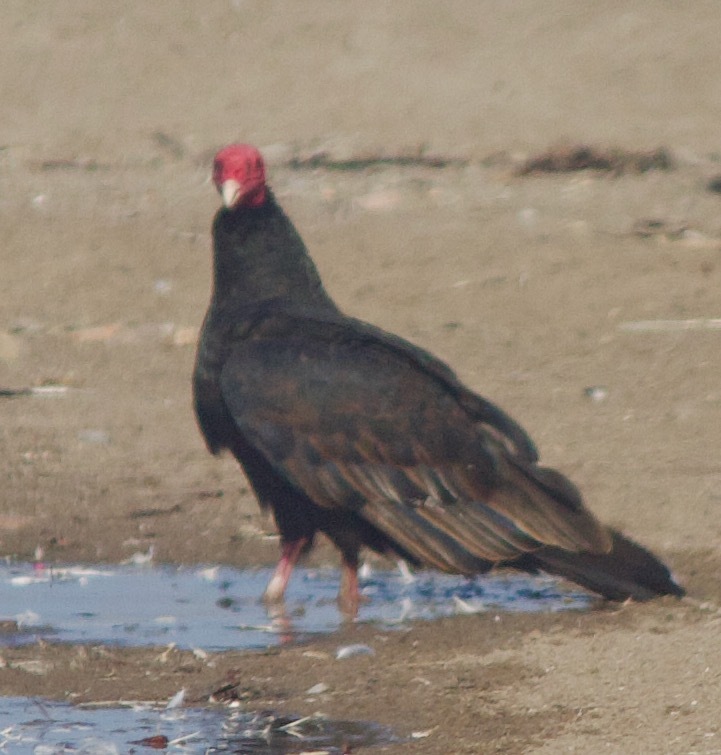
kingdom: Animalia
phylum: Chordata
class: Aves
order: Accipitriformes
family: Cathartidae
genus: Cathartes
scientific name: Cathartes aura
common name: Turkey vulture
